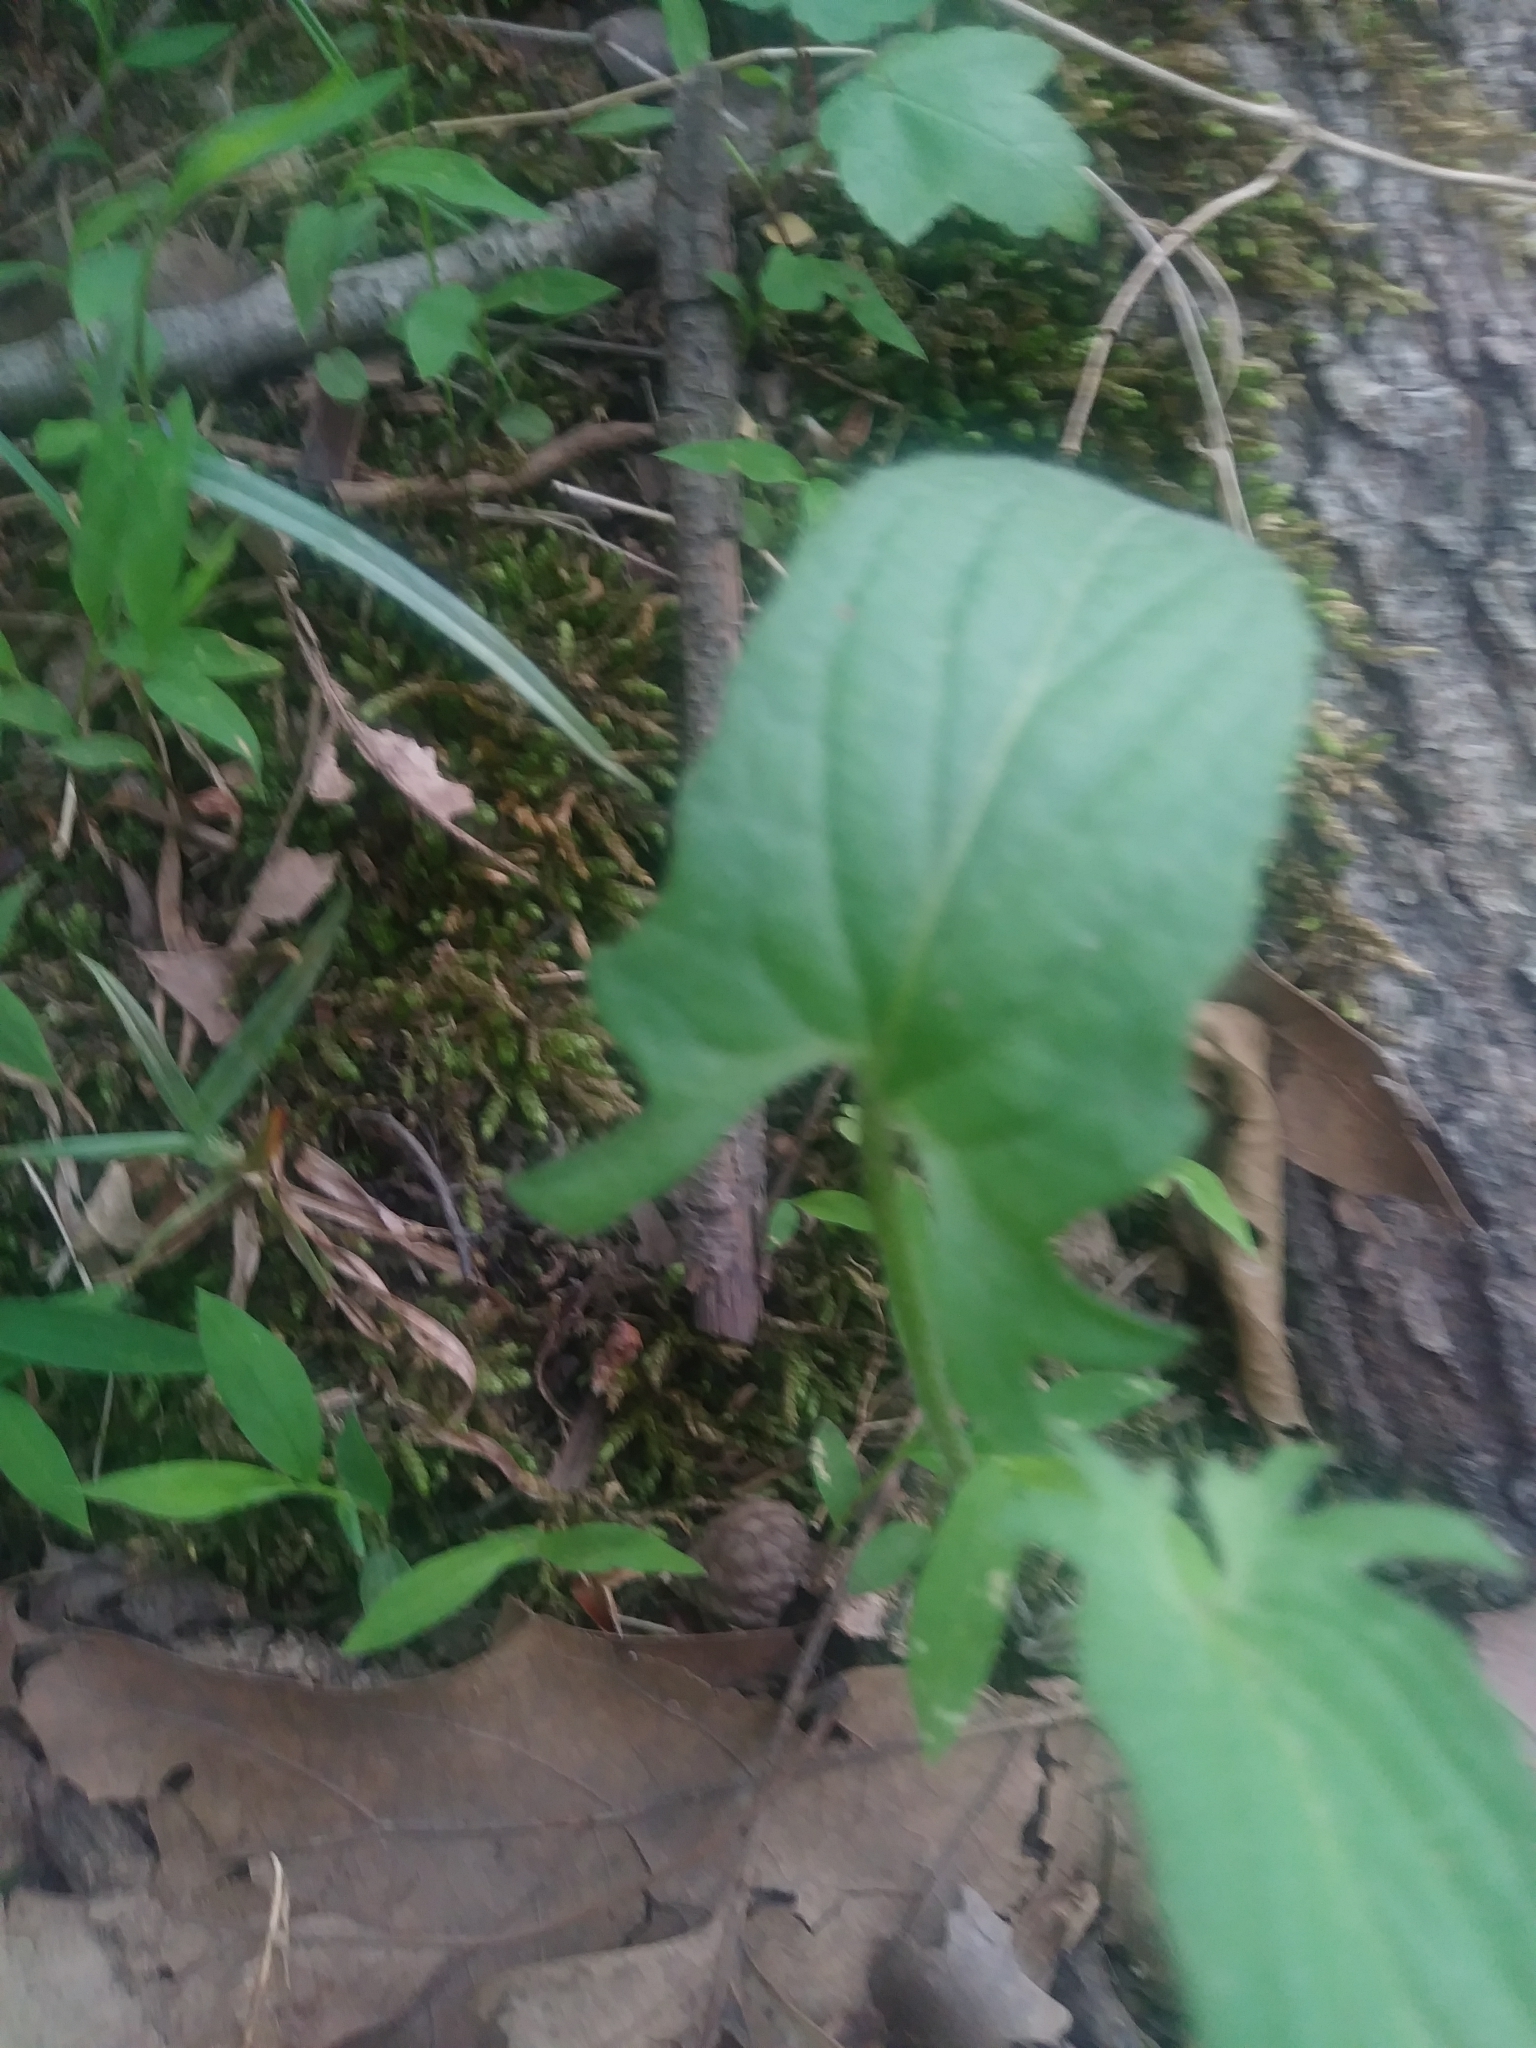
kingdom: Plantae
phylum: Tracheophyta
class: Magnoliopsida
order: Malpighiales
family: Violaceae
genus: Viola
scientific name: Viola sagittata
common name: Arrowhead violet
